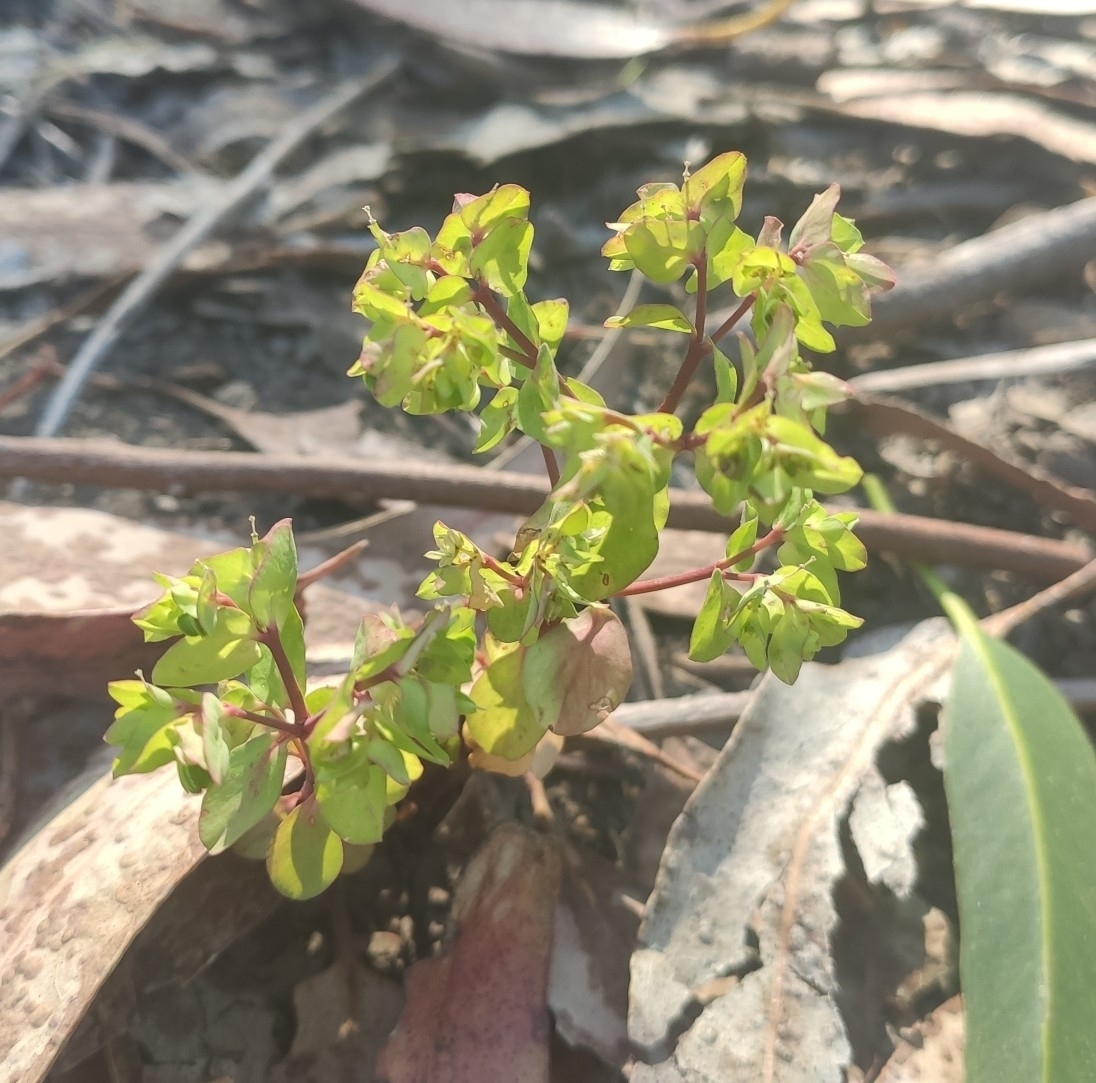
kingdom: Plantae
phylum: Tracheophyta
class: Magnoliopsida
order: Malpighiales
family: Euphorbiaceae
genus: Euphorbia
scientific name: Euphorbia peplus
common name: Petty spurge
